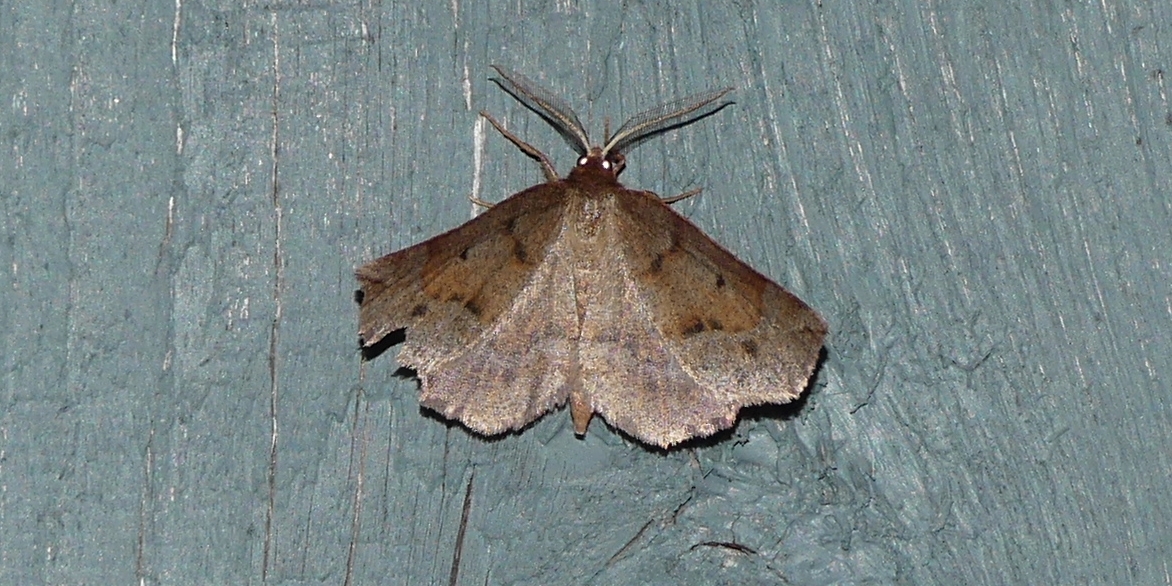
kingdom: Animalia
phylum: Arthropoda
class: Insecta
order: Lepidoptera
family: Geometridae
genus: Metarranthis
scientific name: Metarranthis duaria
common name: Ruddy metarranthis moth
